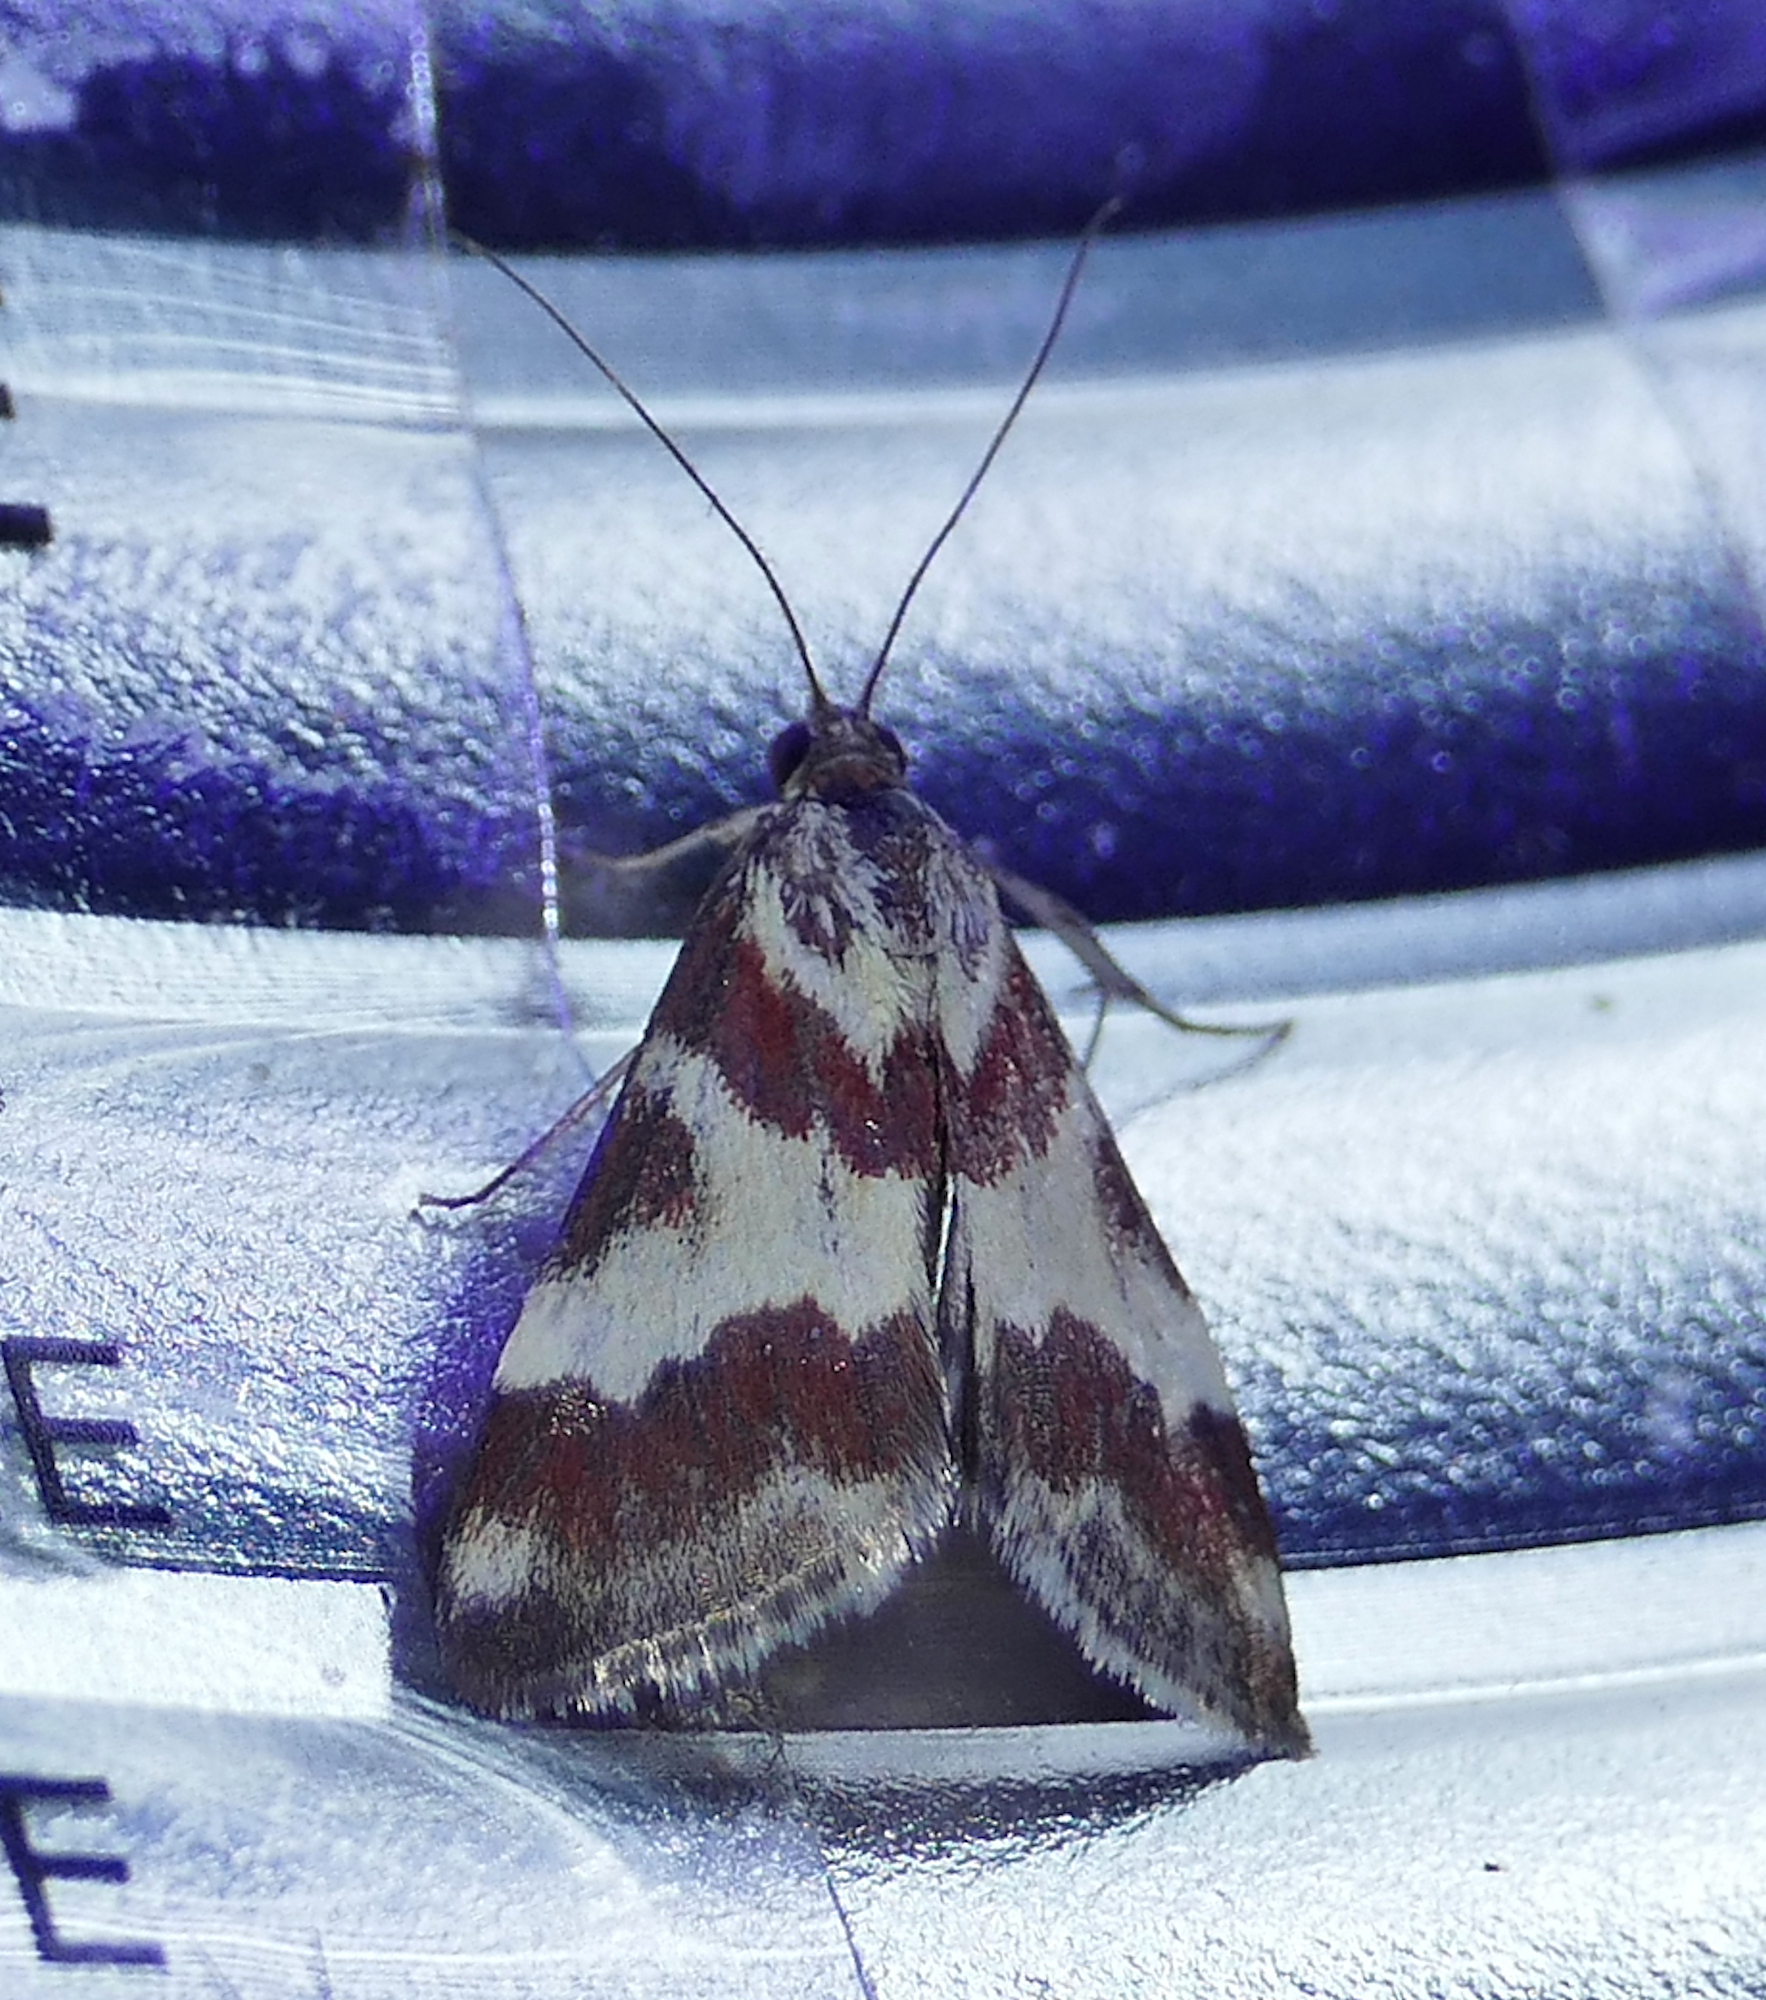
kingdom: Animalia
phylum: Arthropoda
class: Insecta
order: Lepidoptera
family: Crambidae
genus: Noctuelia
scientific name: Noctuelia Mimoschinia rufofascialis
